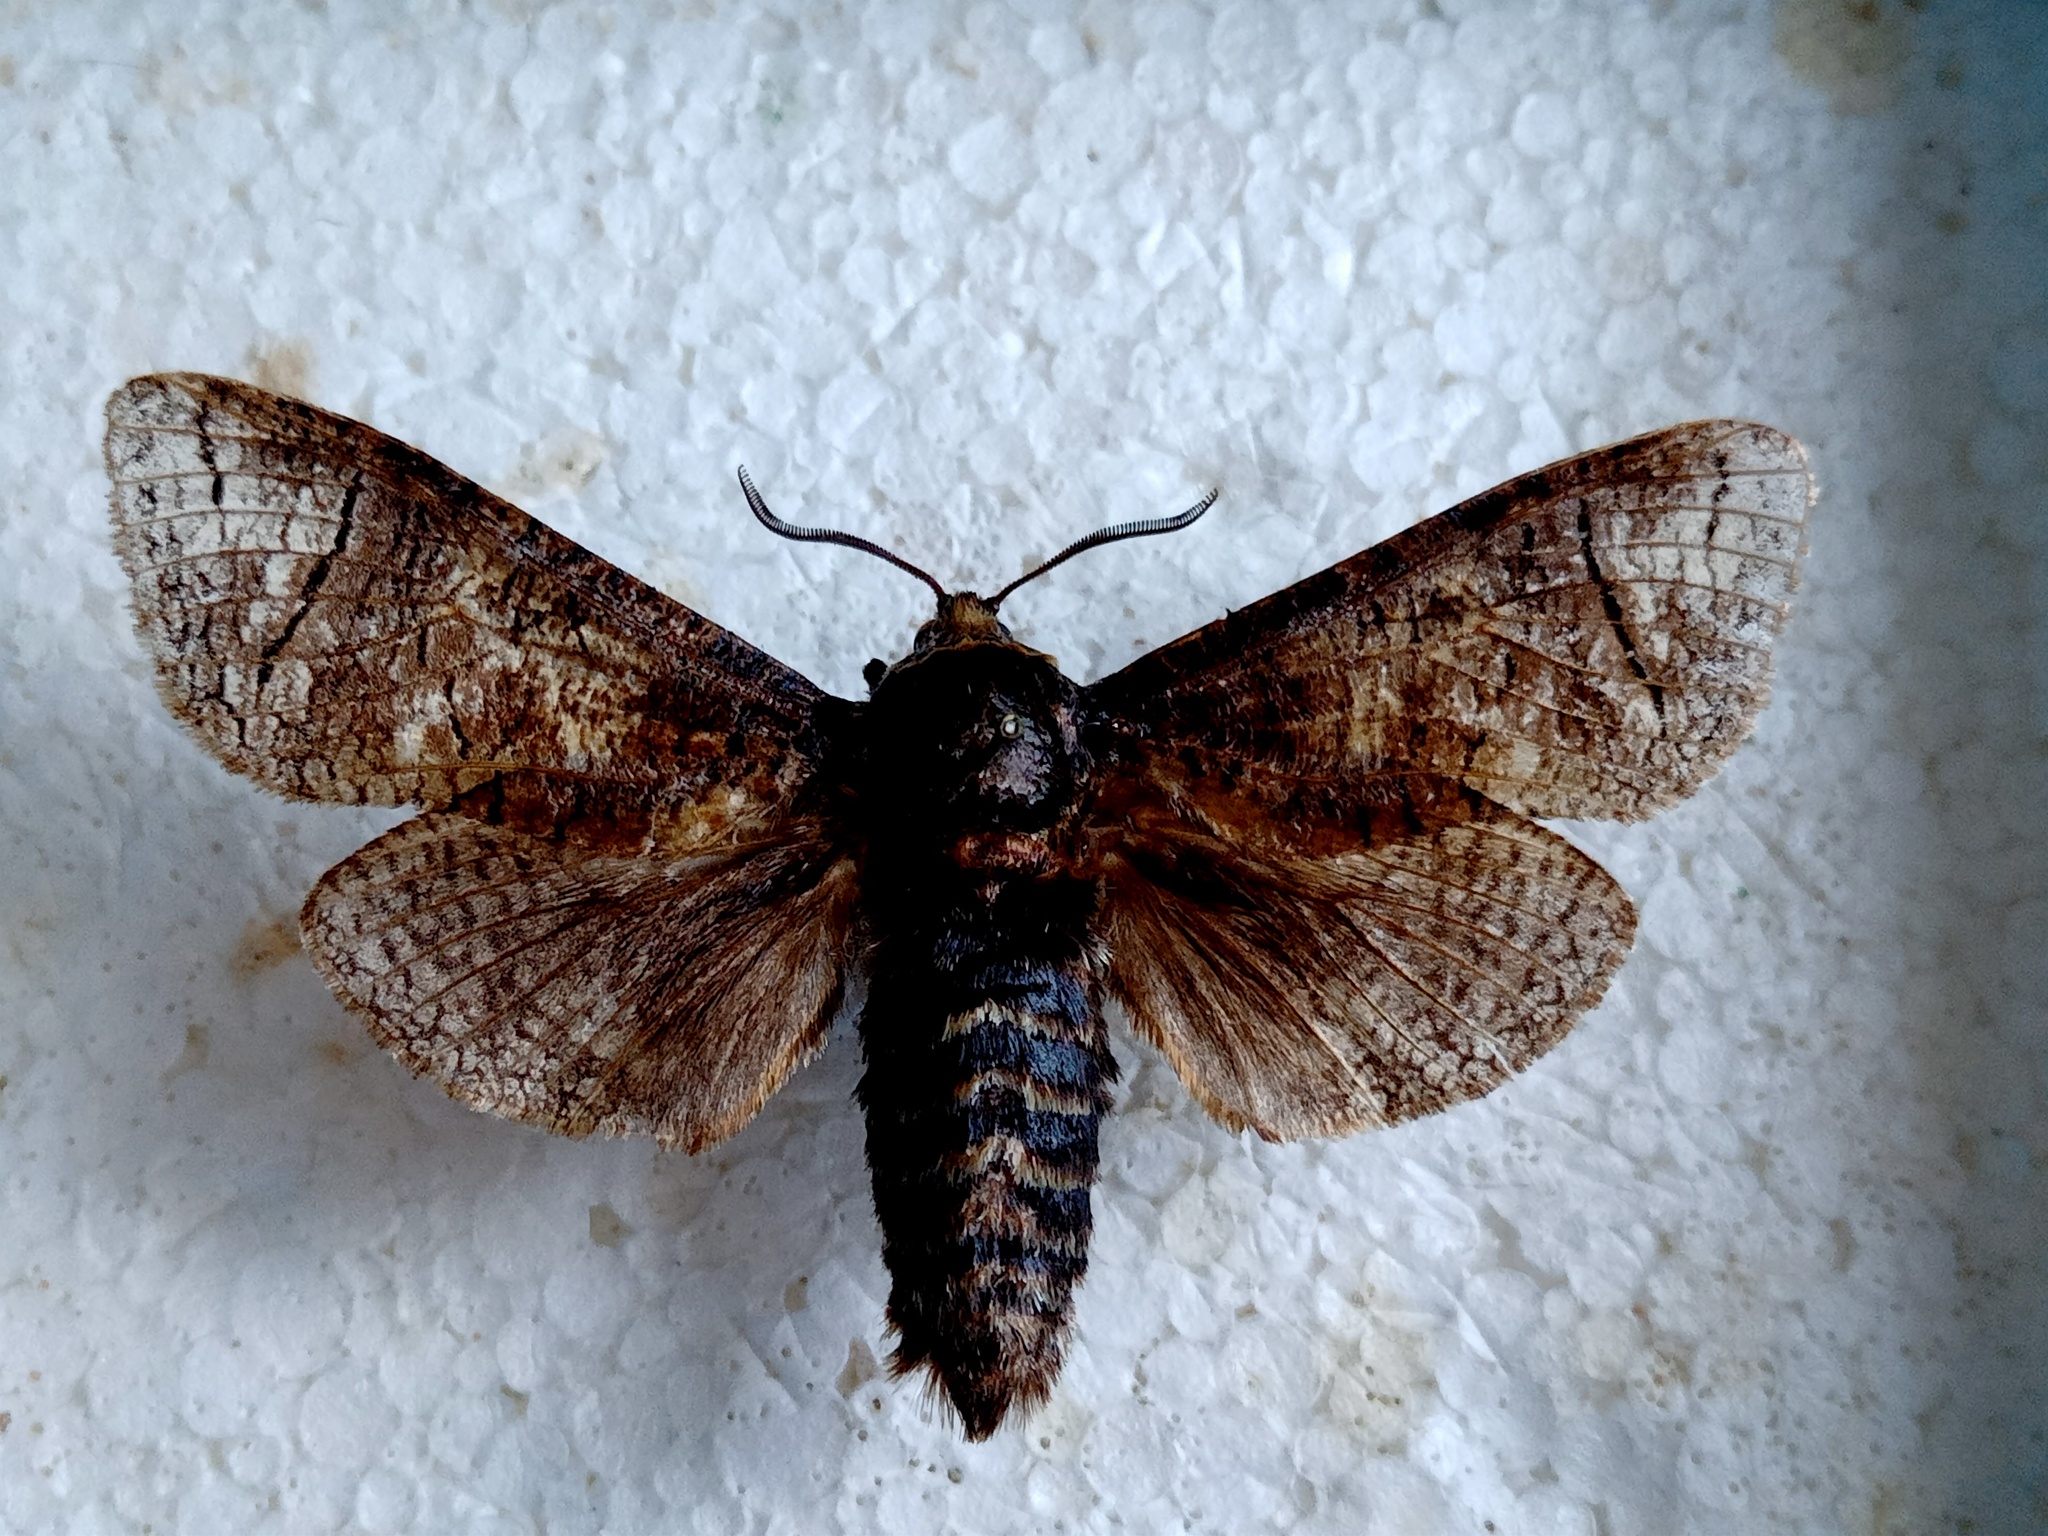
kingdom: Animalia
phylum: Arthropoda
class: Insecta
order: Lepidoptera
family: Cossidae
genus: Cossus
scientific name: Cossus cossus
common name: Goat moth
